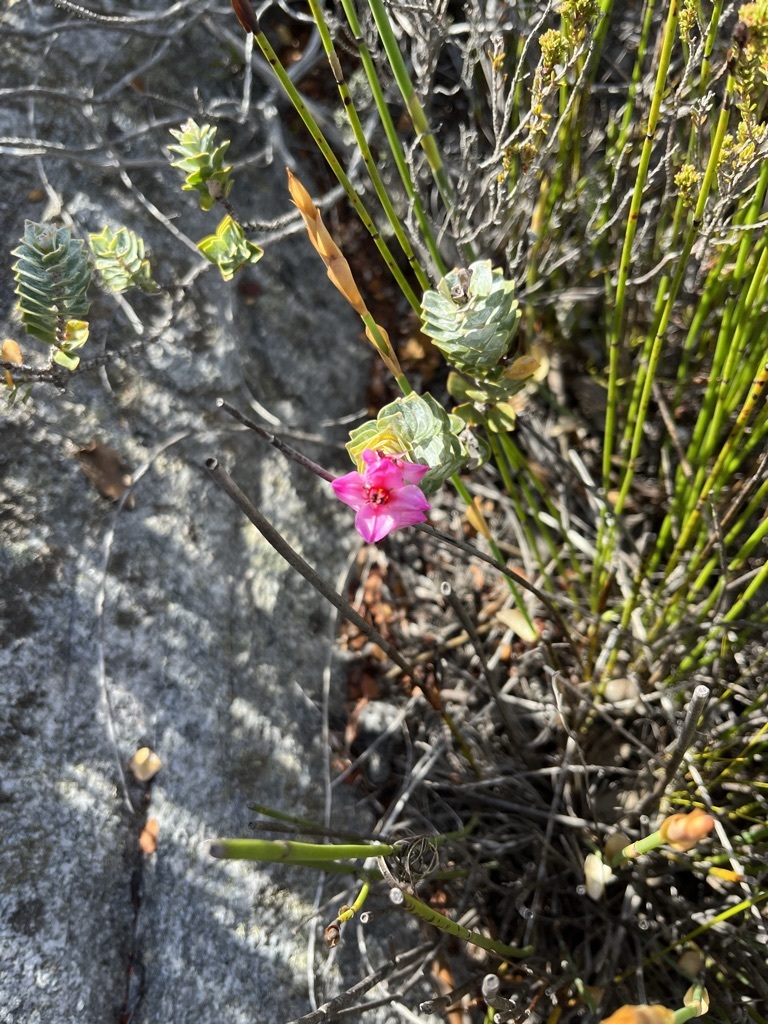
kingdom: Plantae
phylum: Tracheophyta
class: Magnoliopsida
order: Myrtales
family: Penaeaceae
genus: Saltera
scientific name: Saltera sarcocolla
